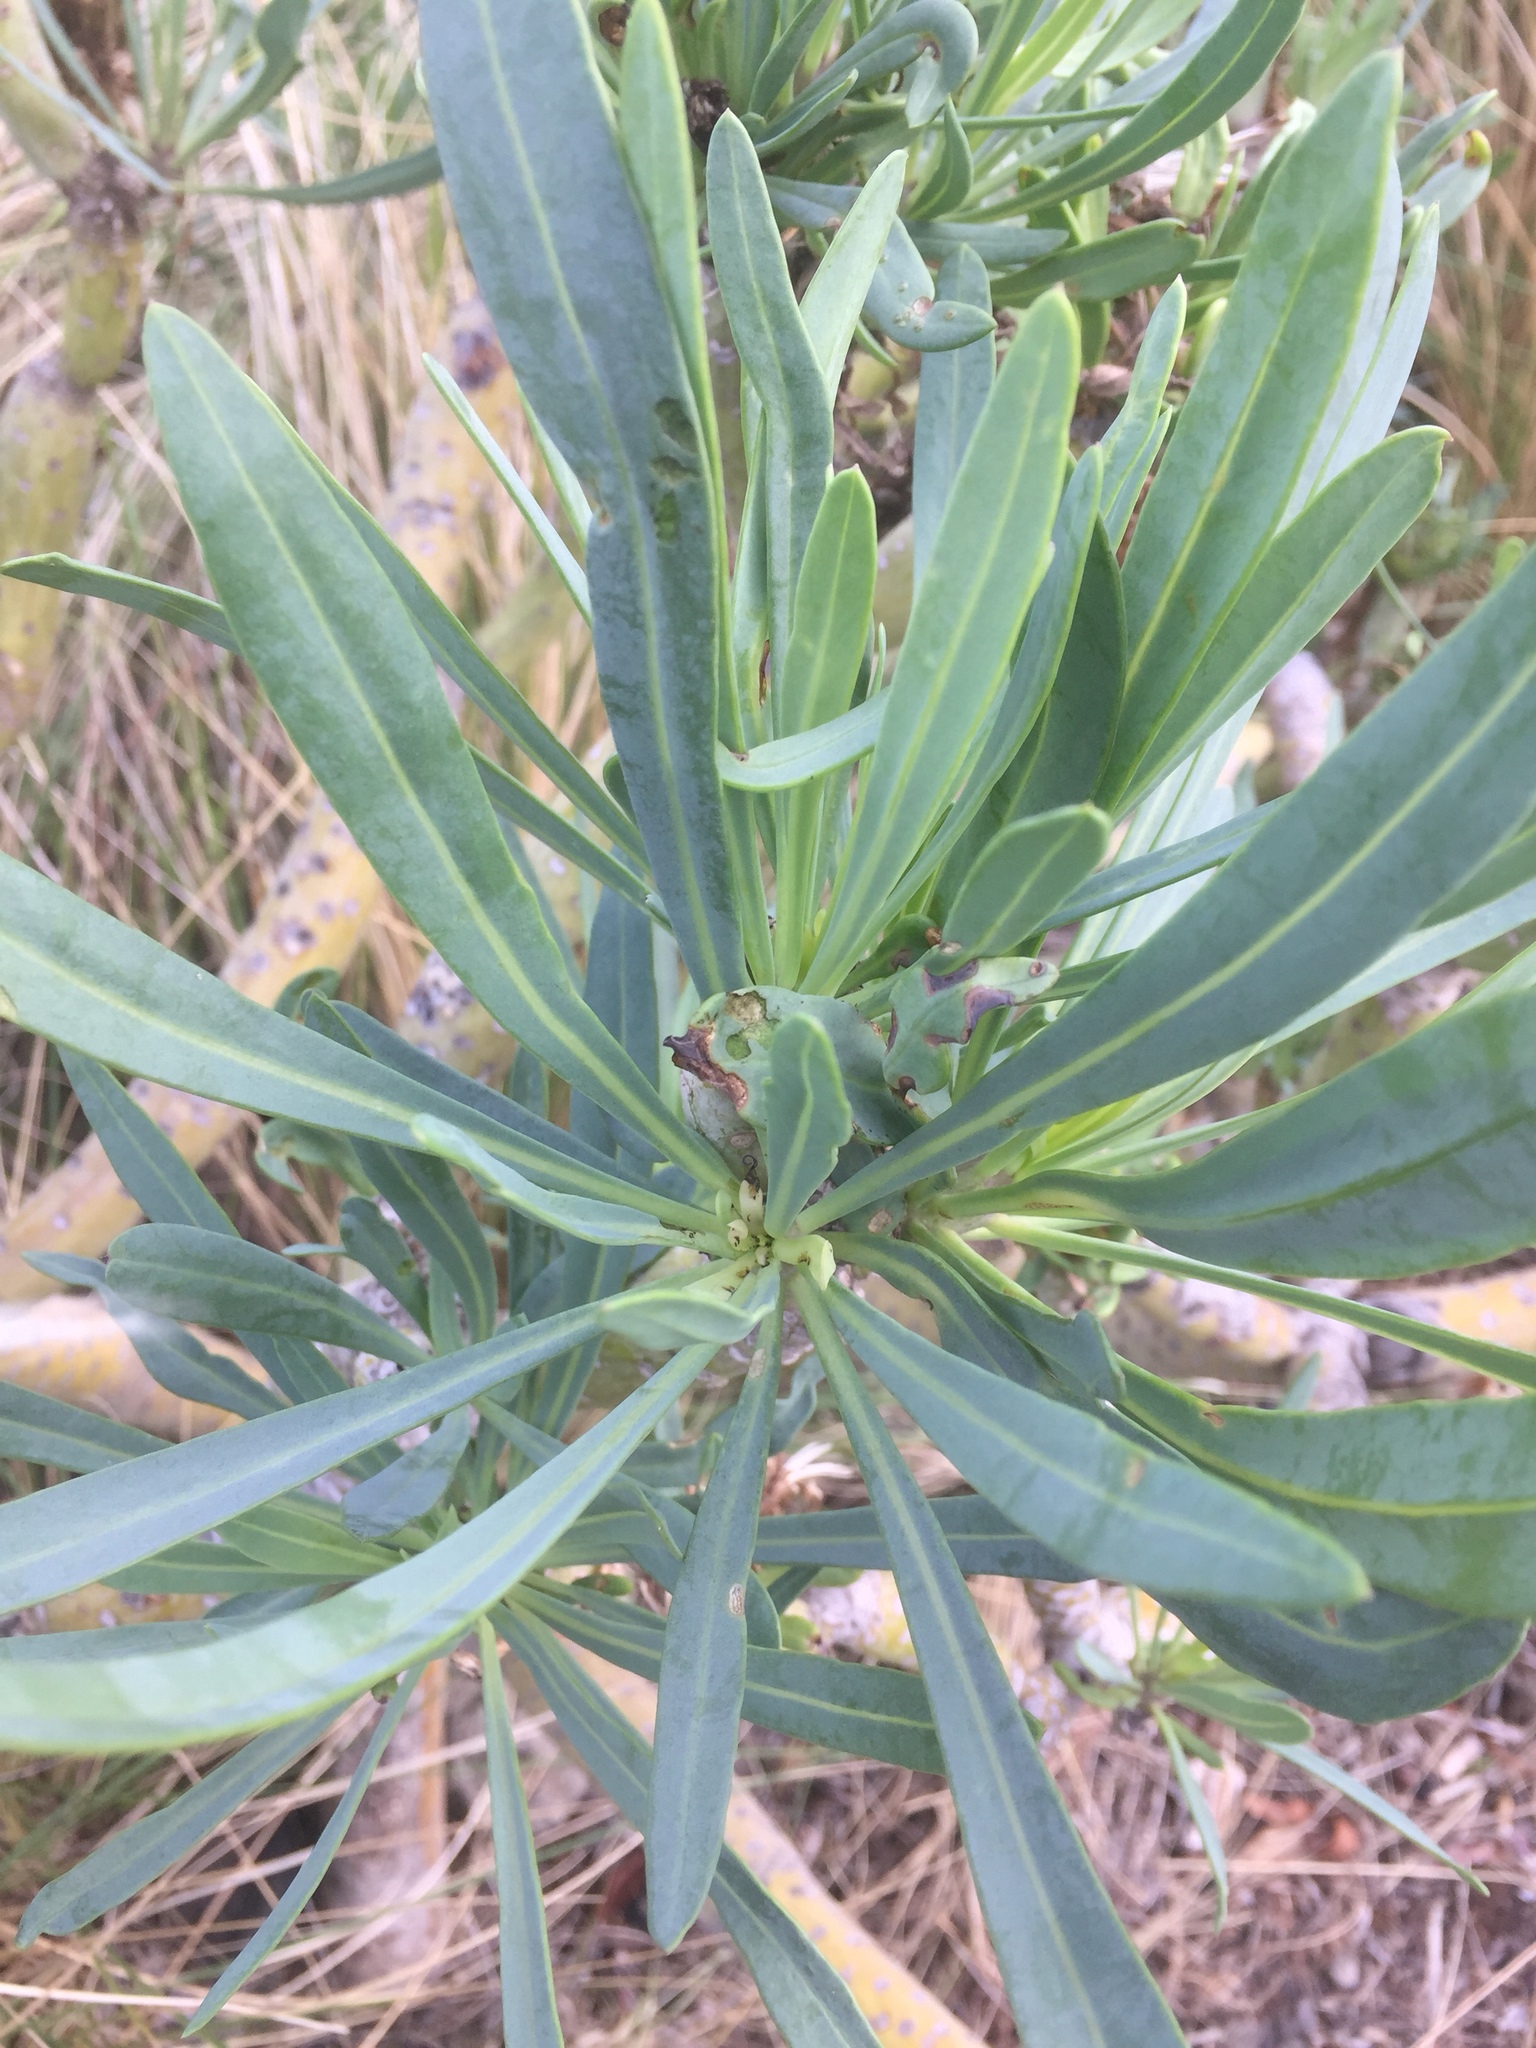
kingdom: Plantae
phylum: Tracheophyta
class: Magnoliopsida
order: Asterales
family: Asteraceae
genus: Kleinia
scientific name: Kleinia neriifolia
